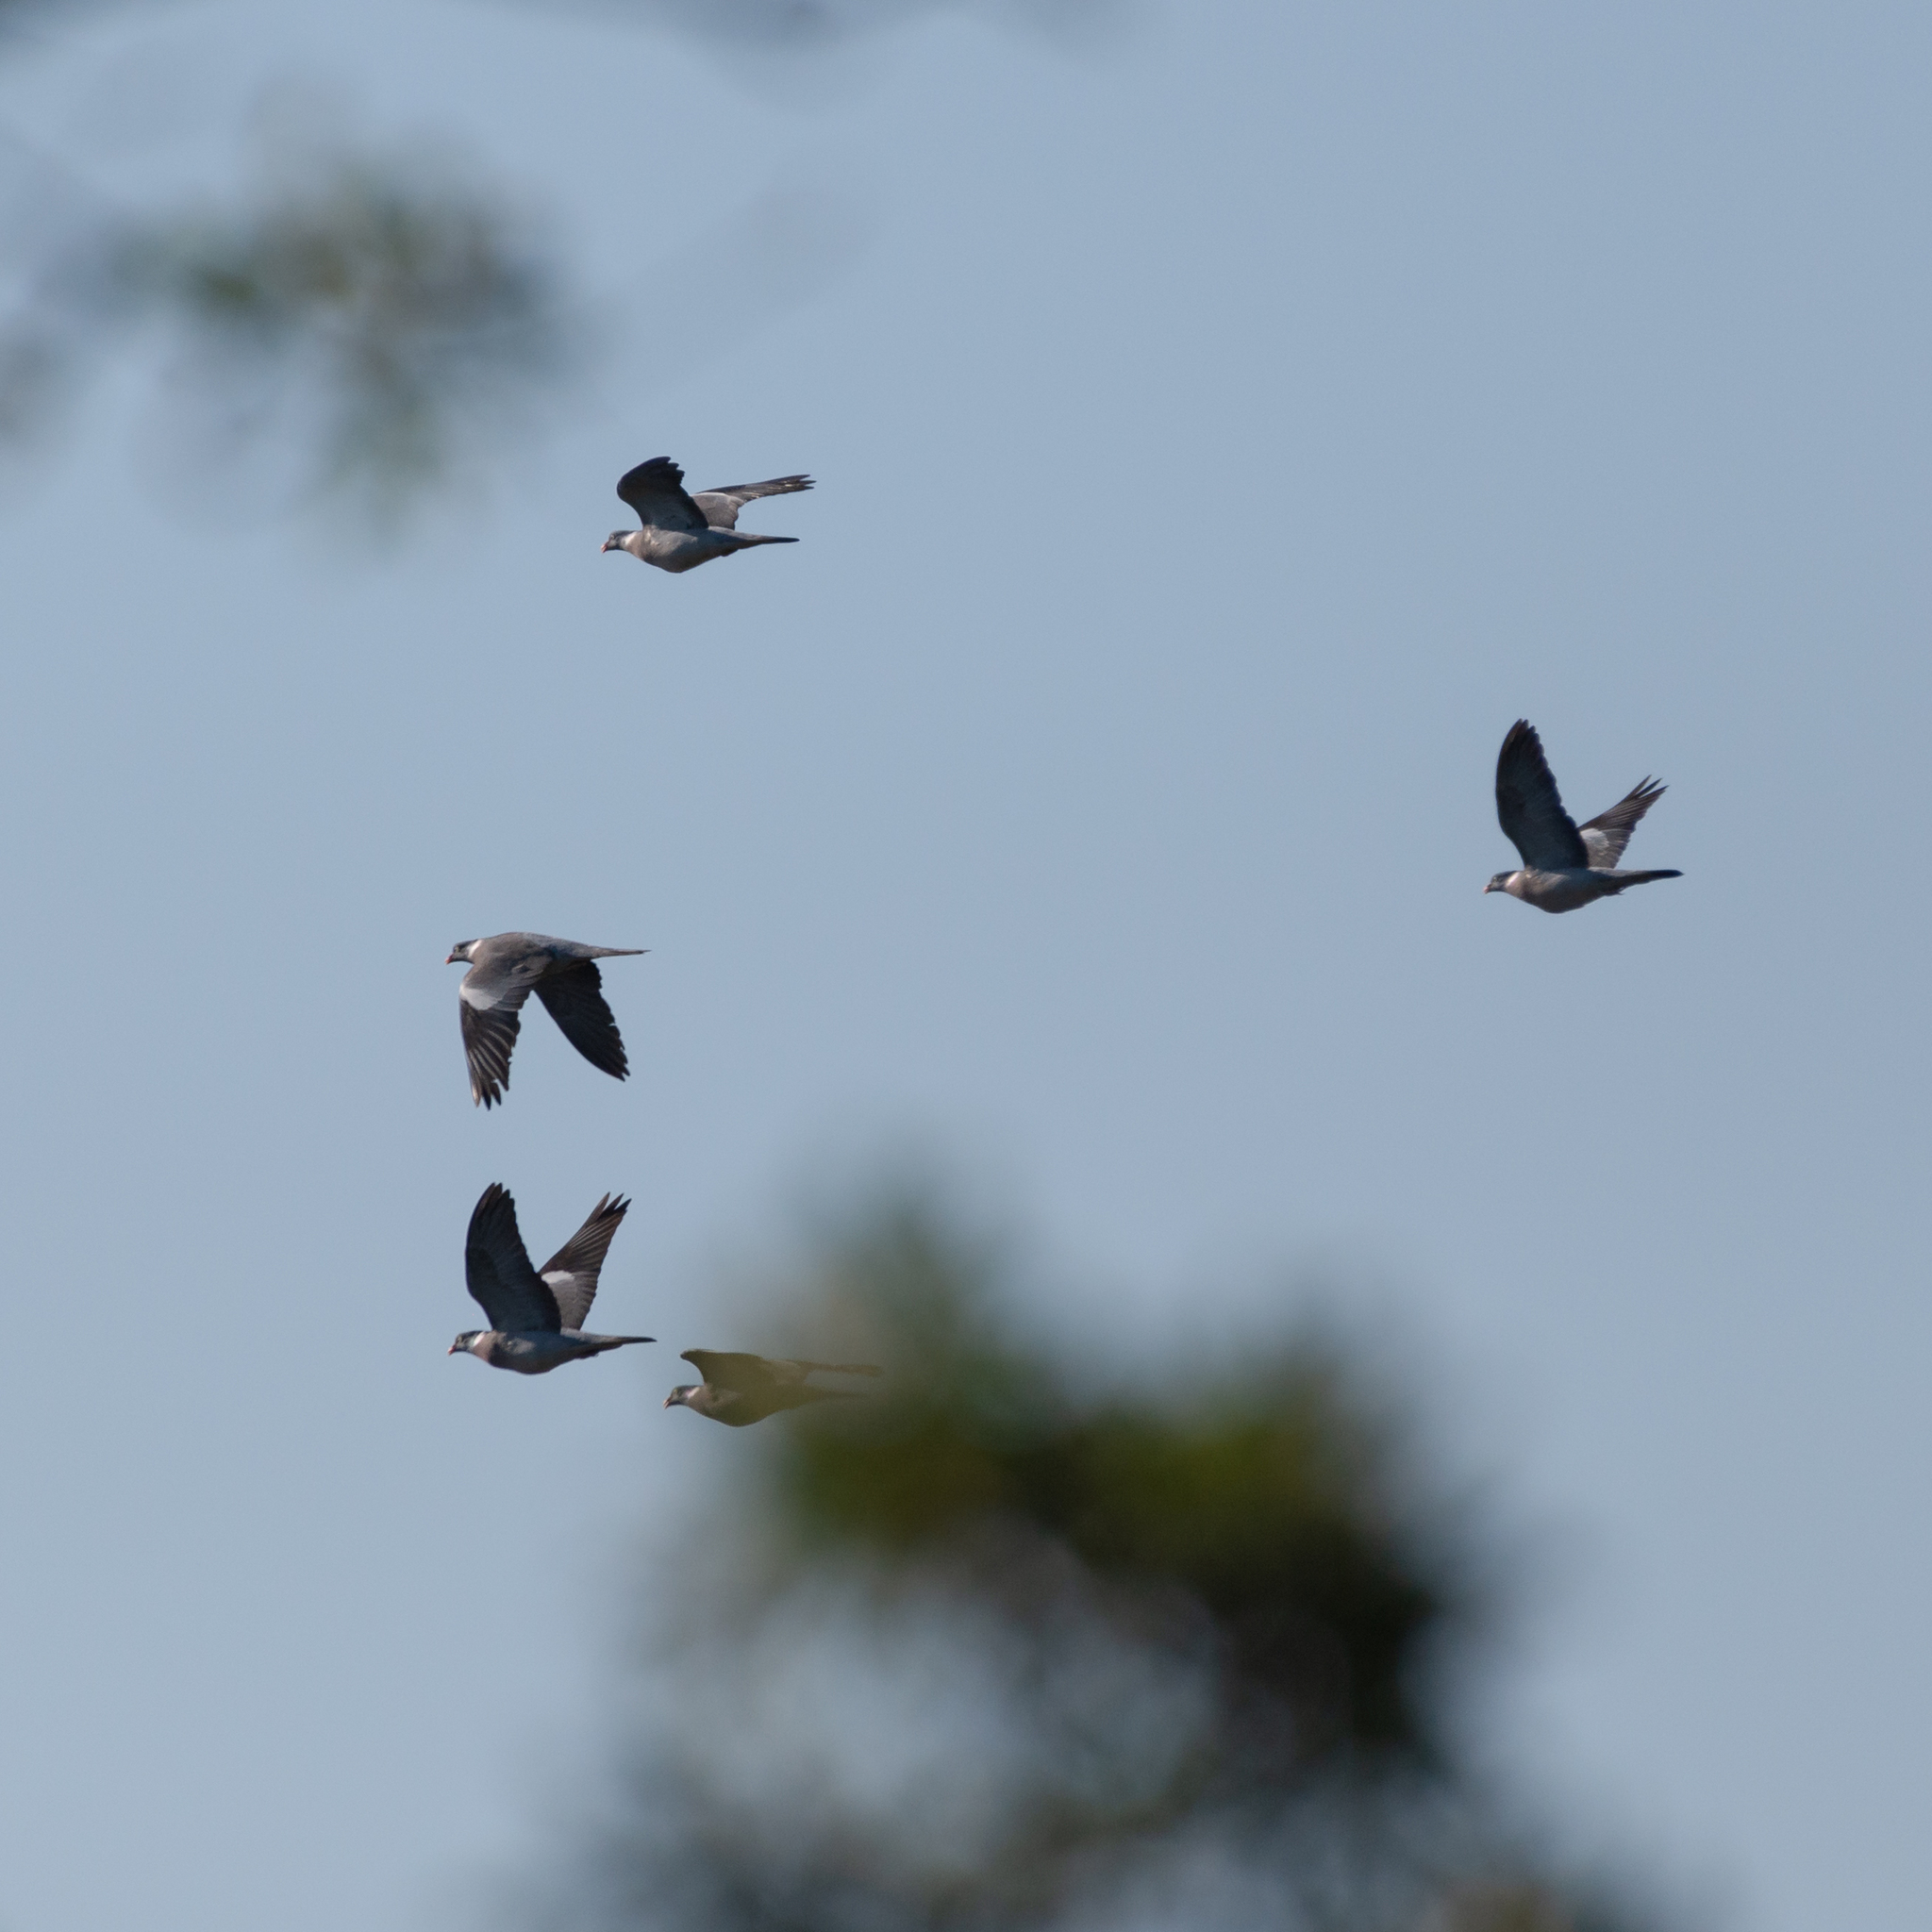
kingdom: Animalia
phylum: Chordata
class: Aves
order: Columbiformes
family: Columbidae
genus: Columba
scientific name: Columba palumbus
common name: Common wood pigeon
